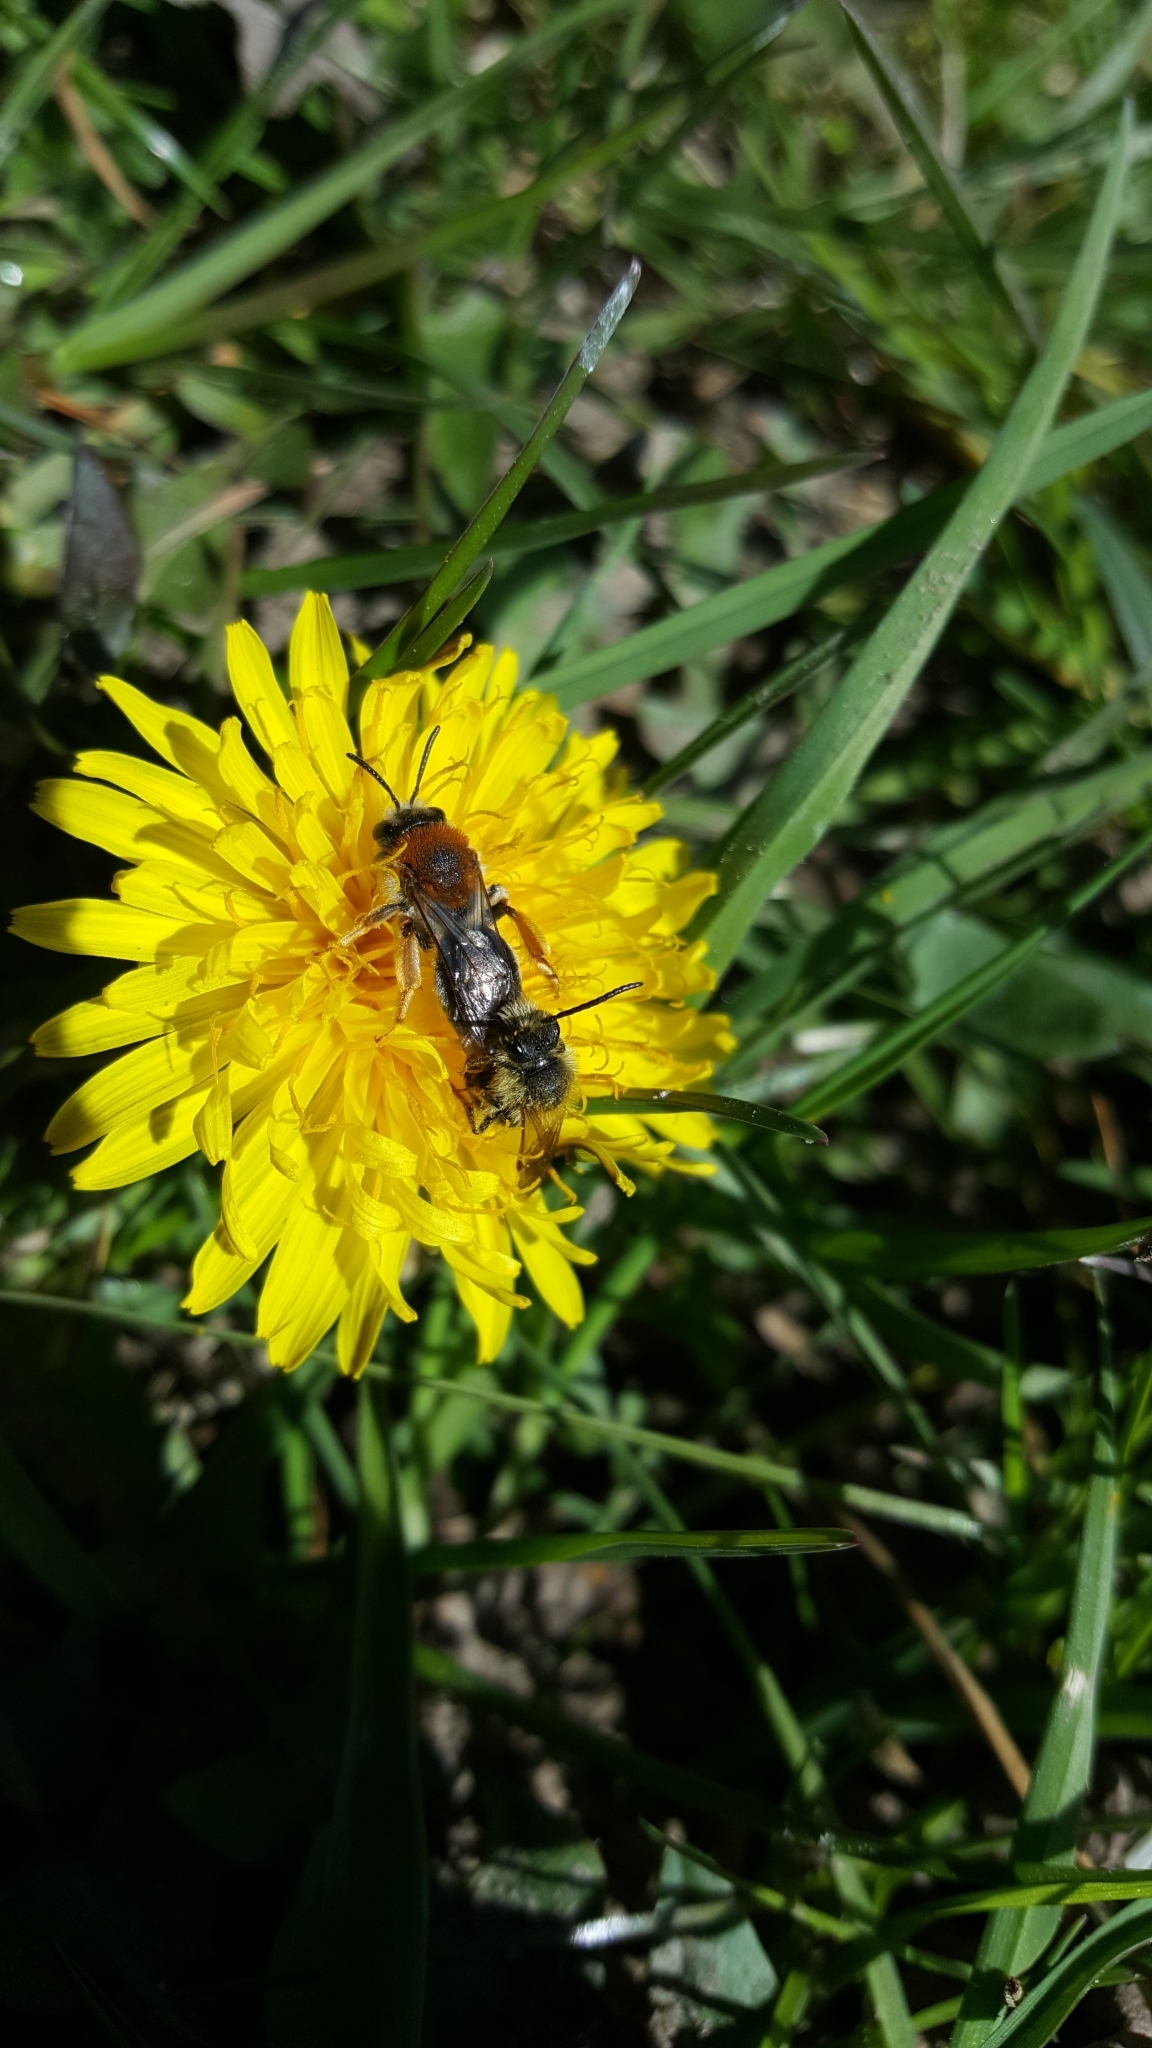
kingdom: Animalia
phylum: Arthropoda
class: Insecta
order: Hymenoptera
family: Andrenidae
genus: Andrena
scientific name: Andrena haemorrhoa
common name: Early mining bee
